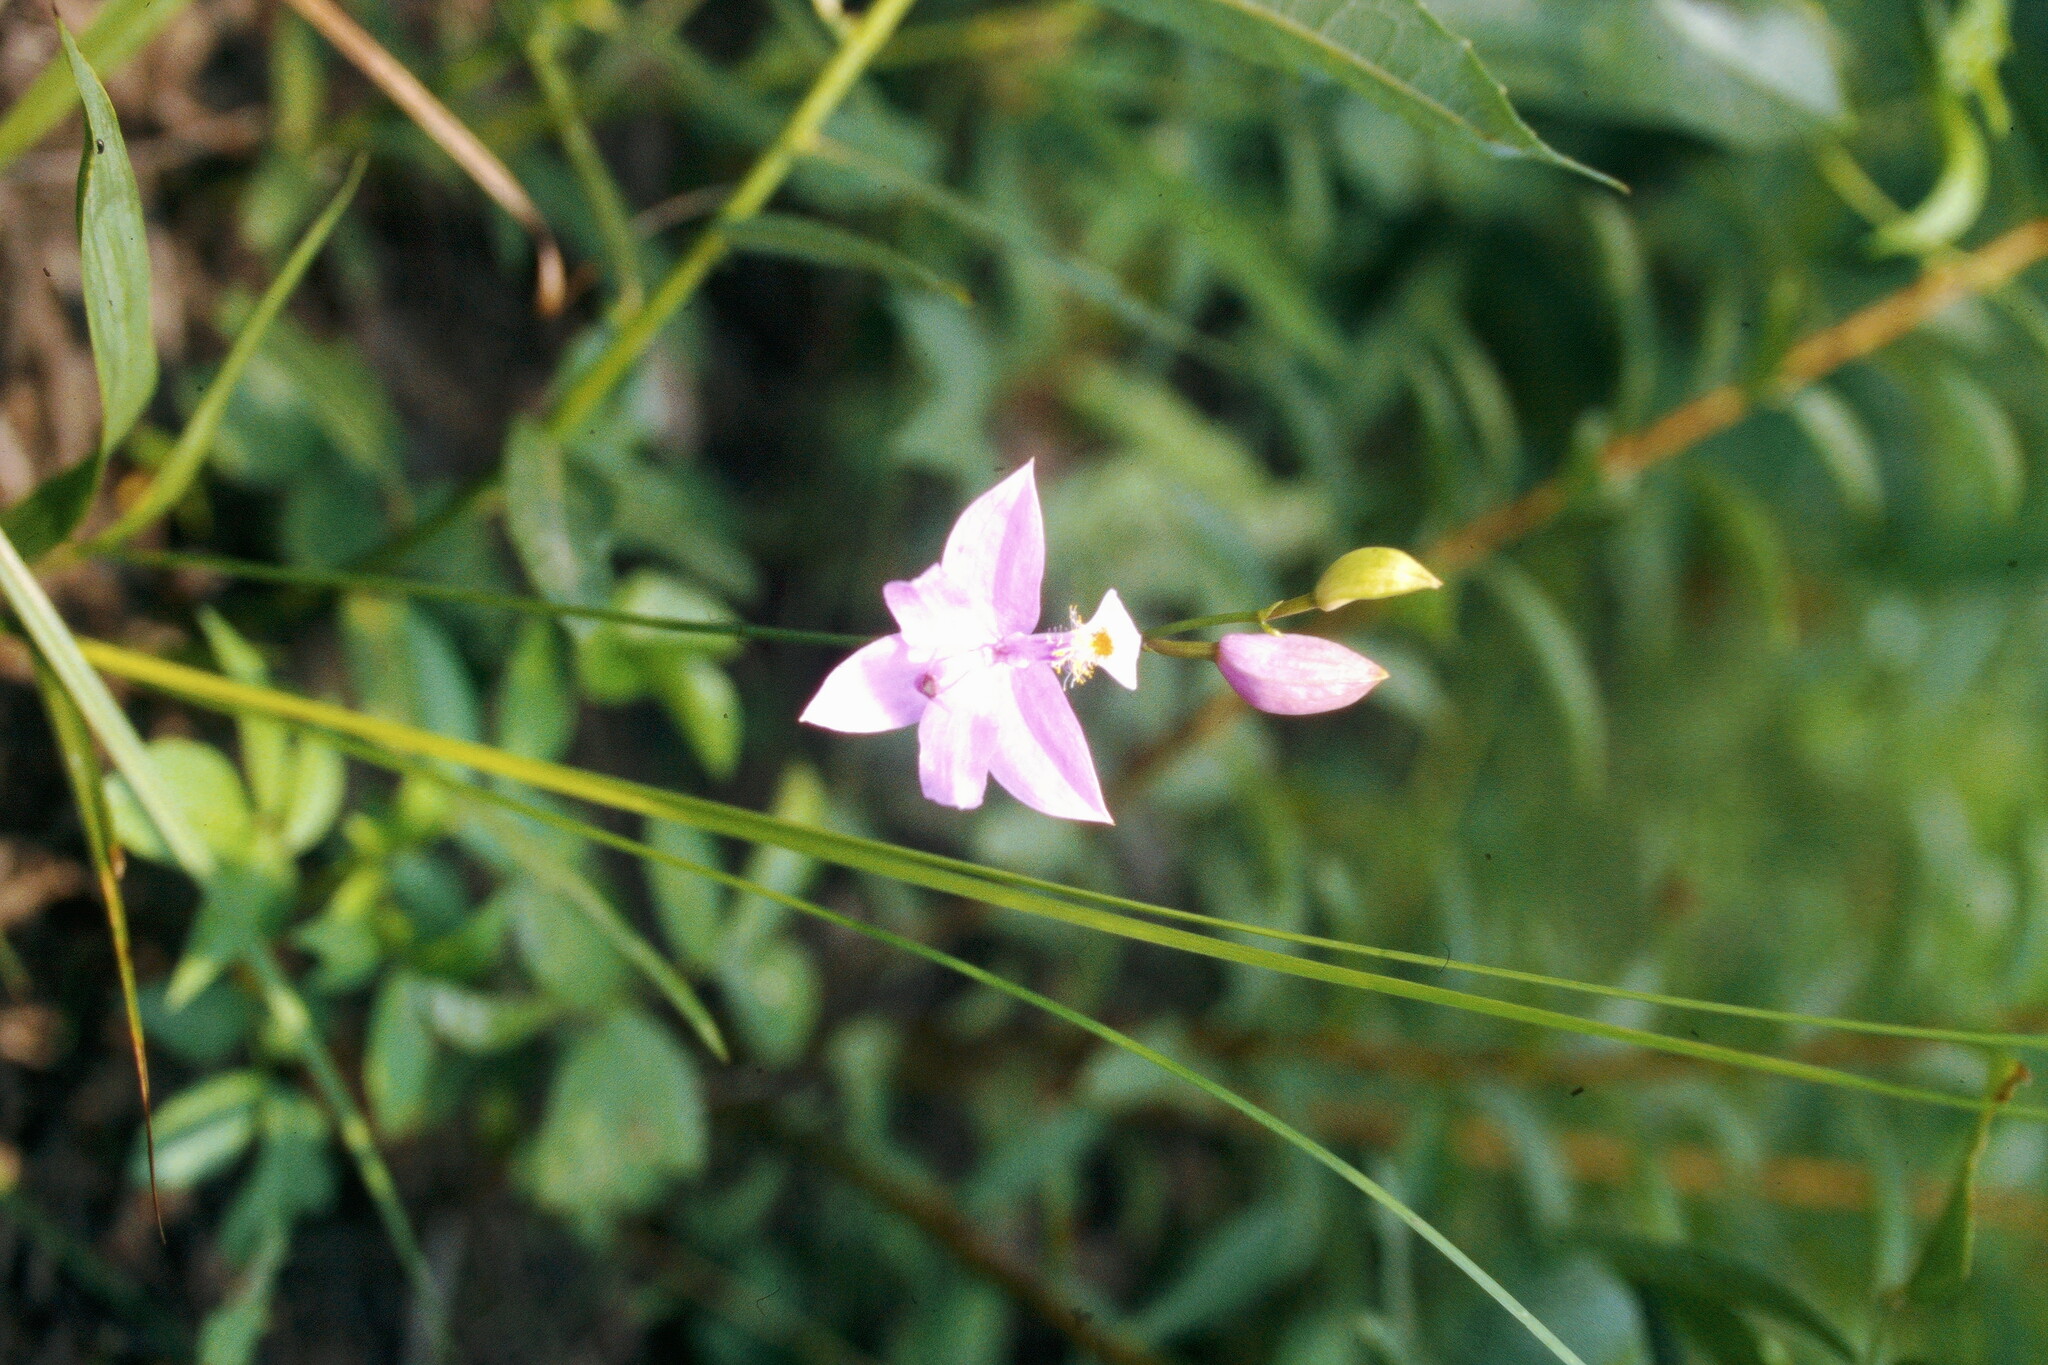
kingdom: Plantae
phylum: Tracheophyta
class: Liliopsida
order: Asparagales
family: Orchidaceae
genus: Calopogon
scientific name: Calopogon tuberosus
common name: Grass-pink
